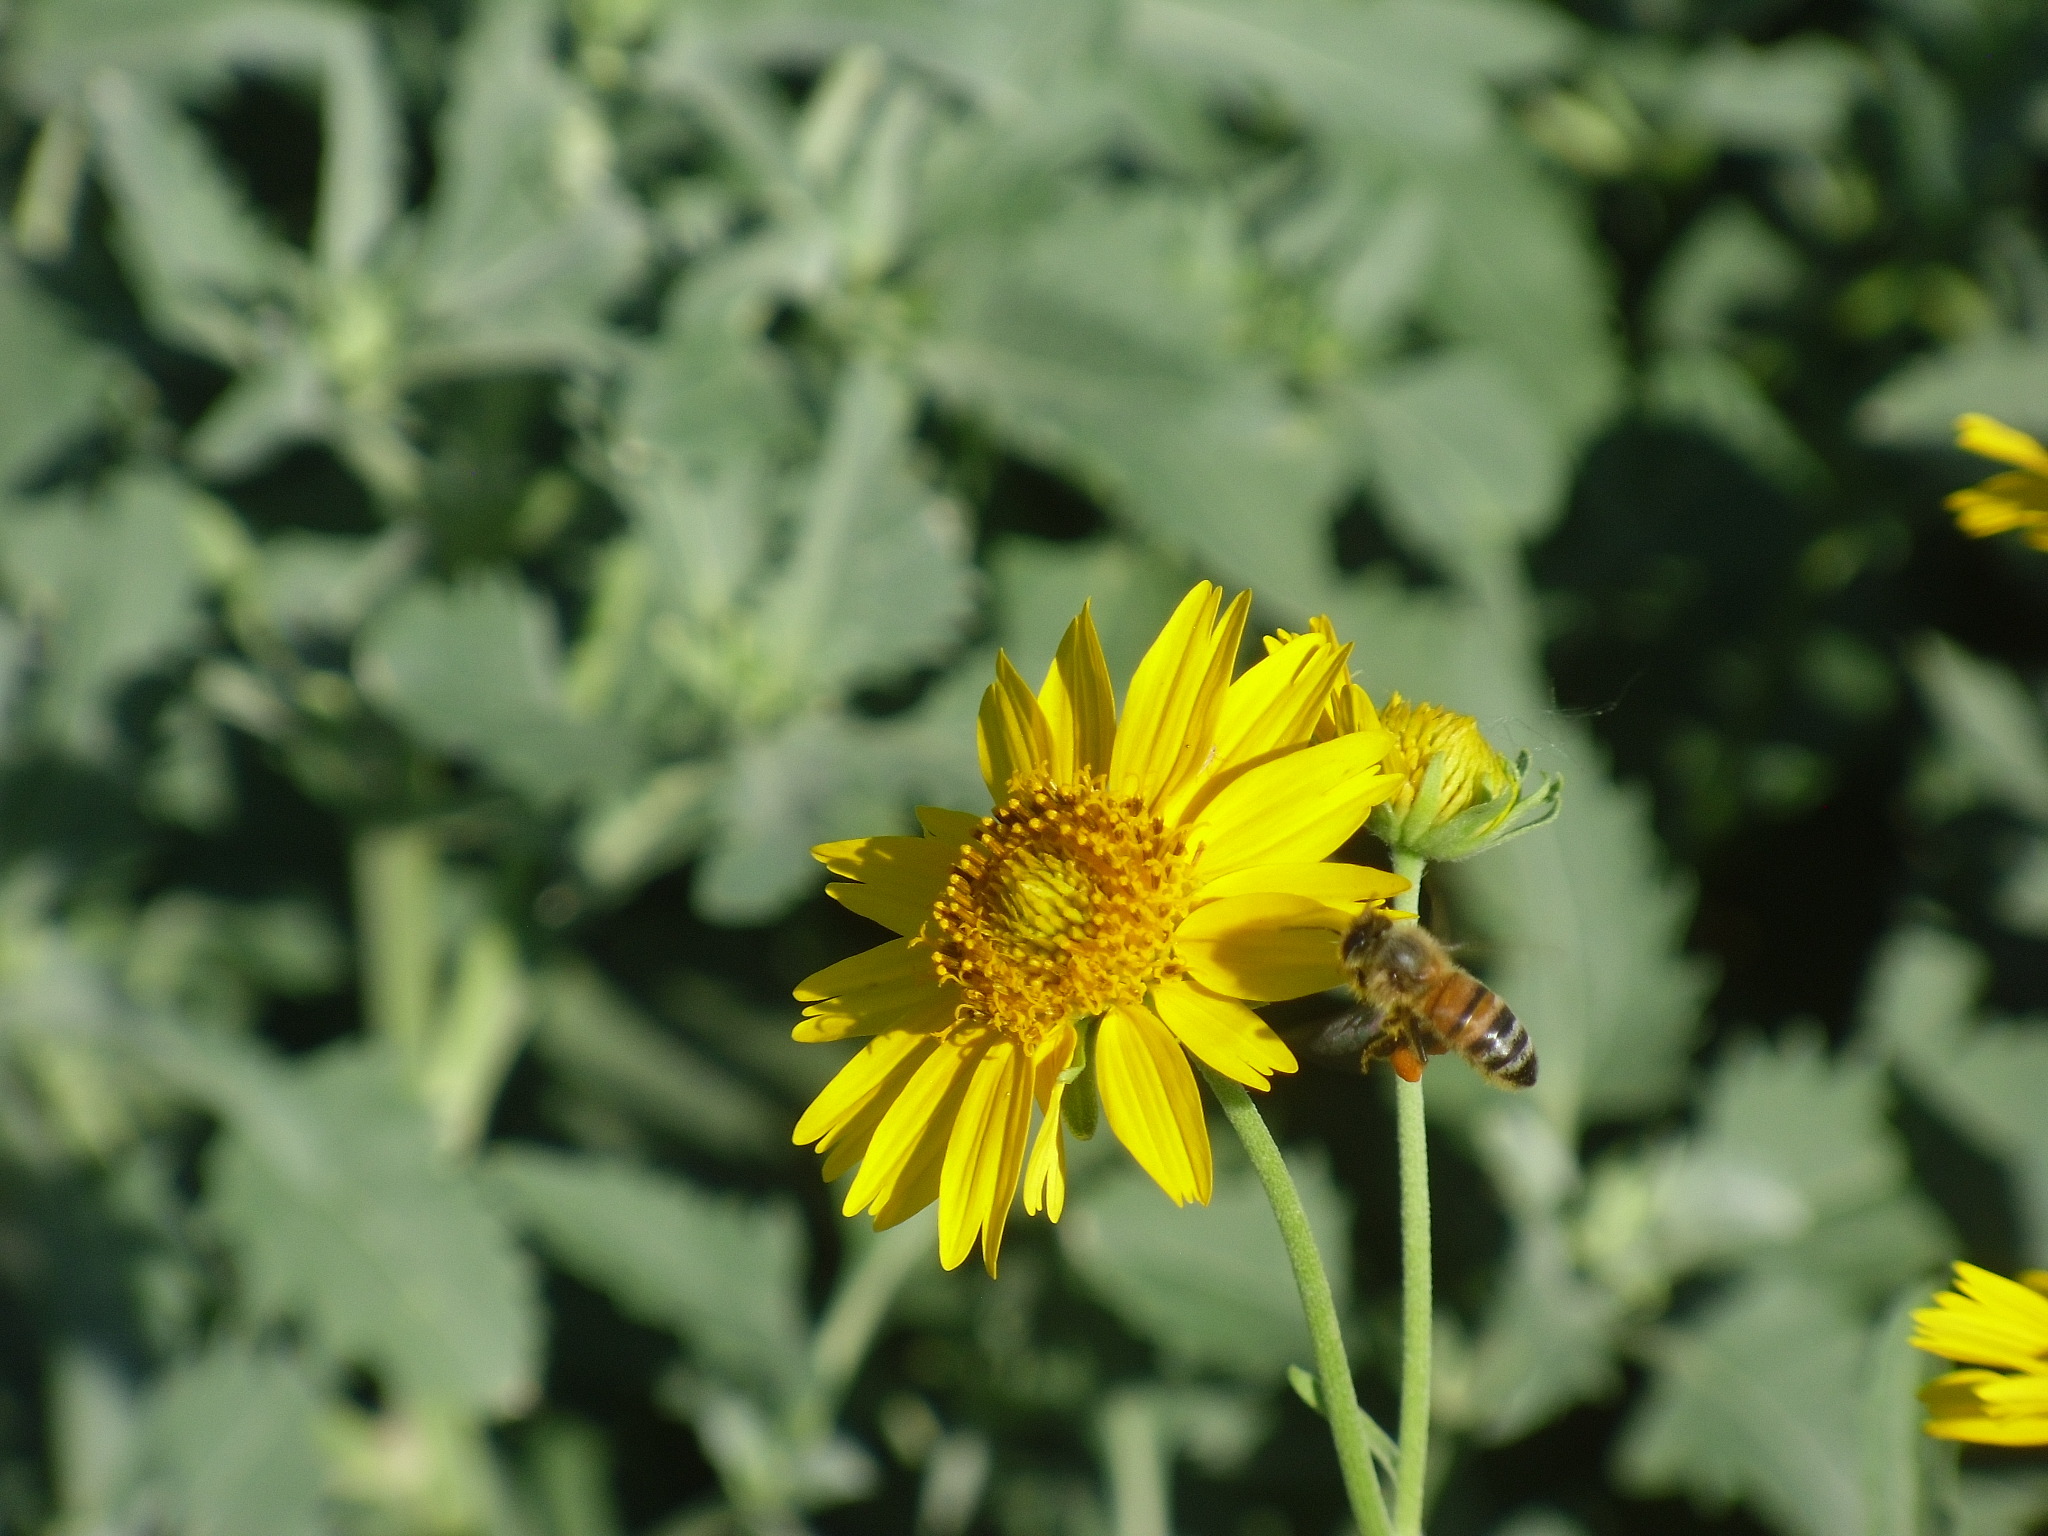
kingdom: Animalia
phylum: Arthropoda
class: Insecta
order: Hymenoptera
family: Apidae
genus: Apis
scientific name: Apis mellifera
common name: Honey bee
